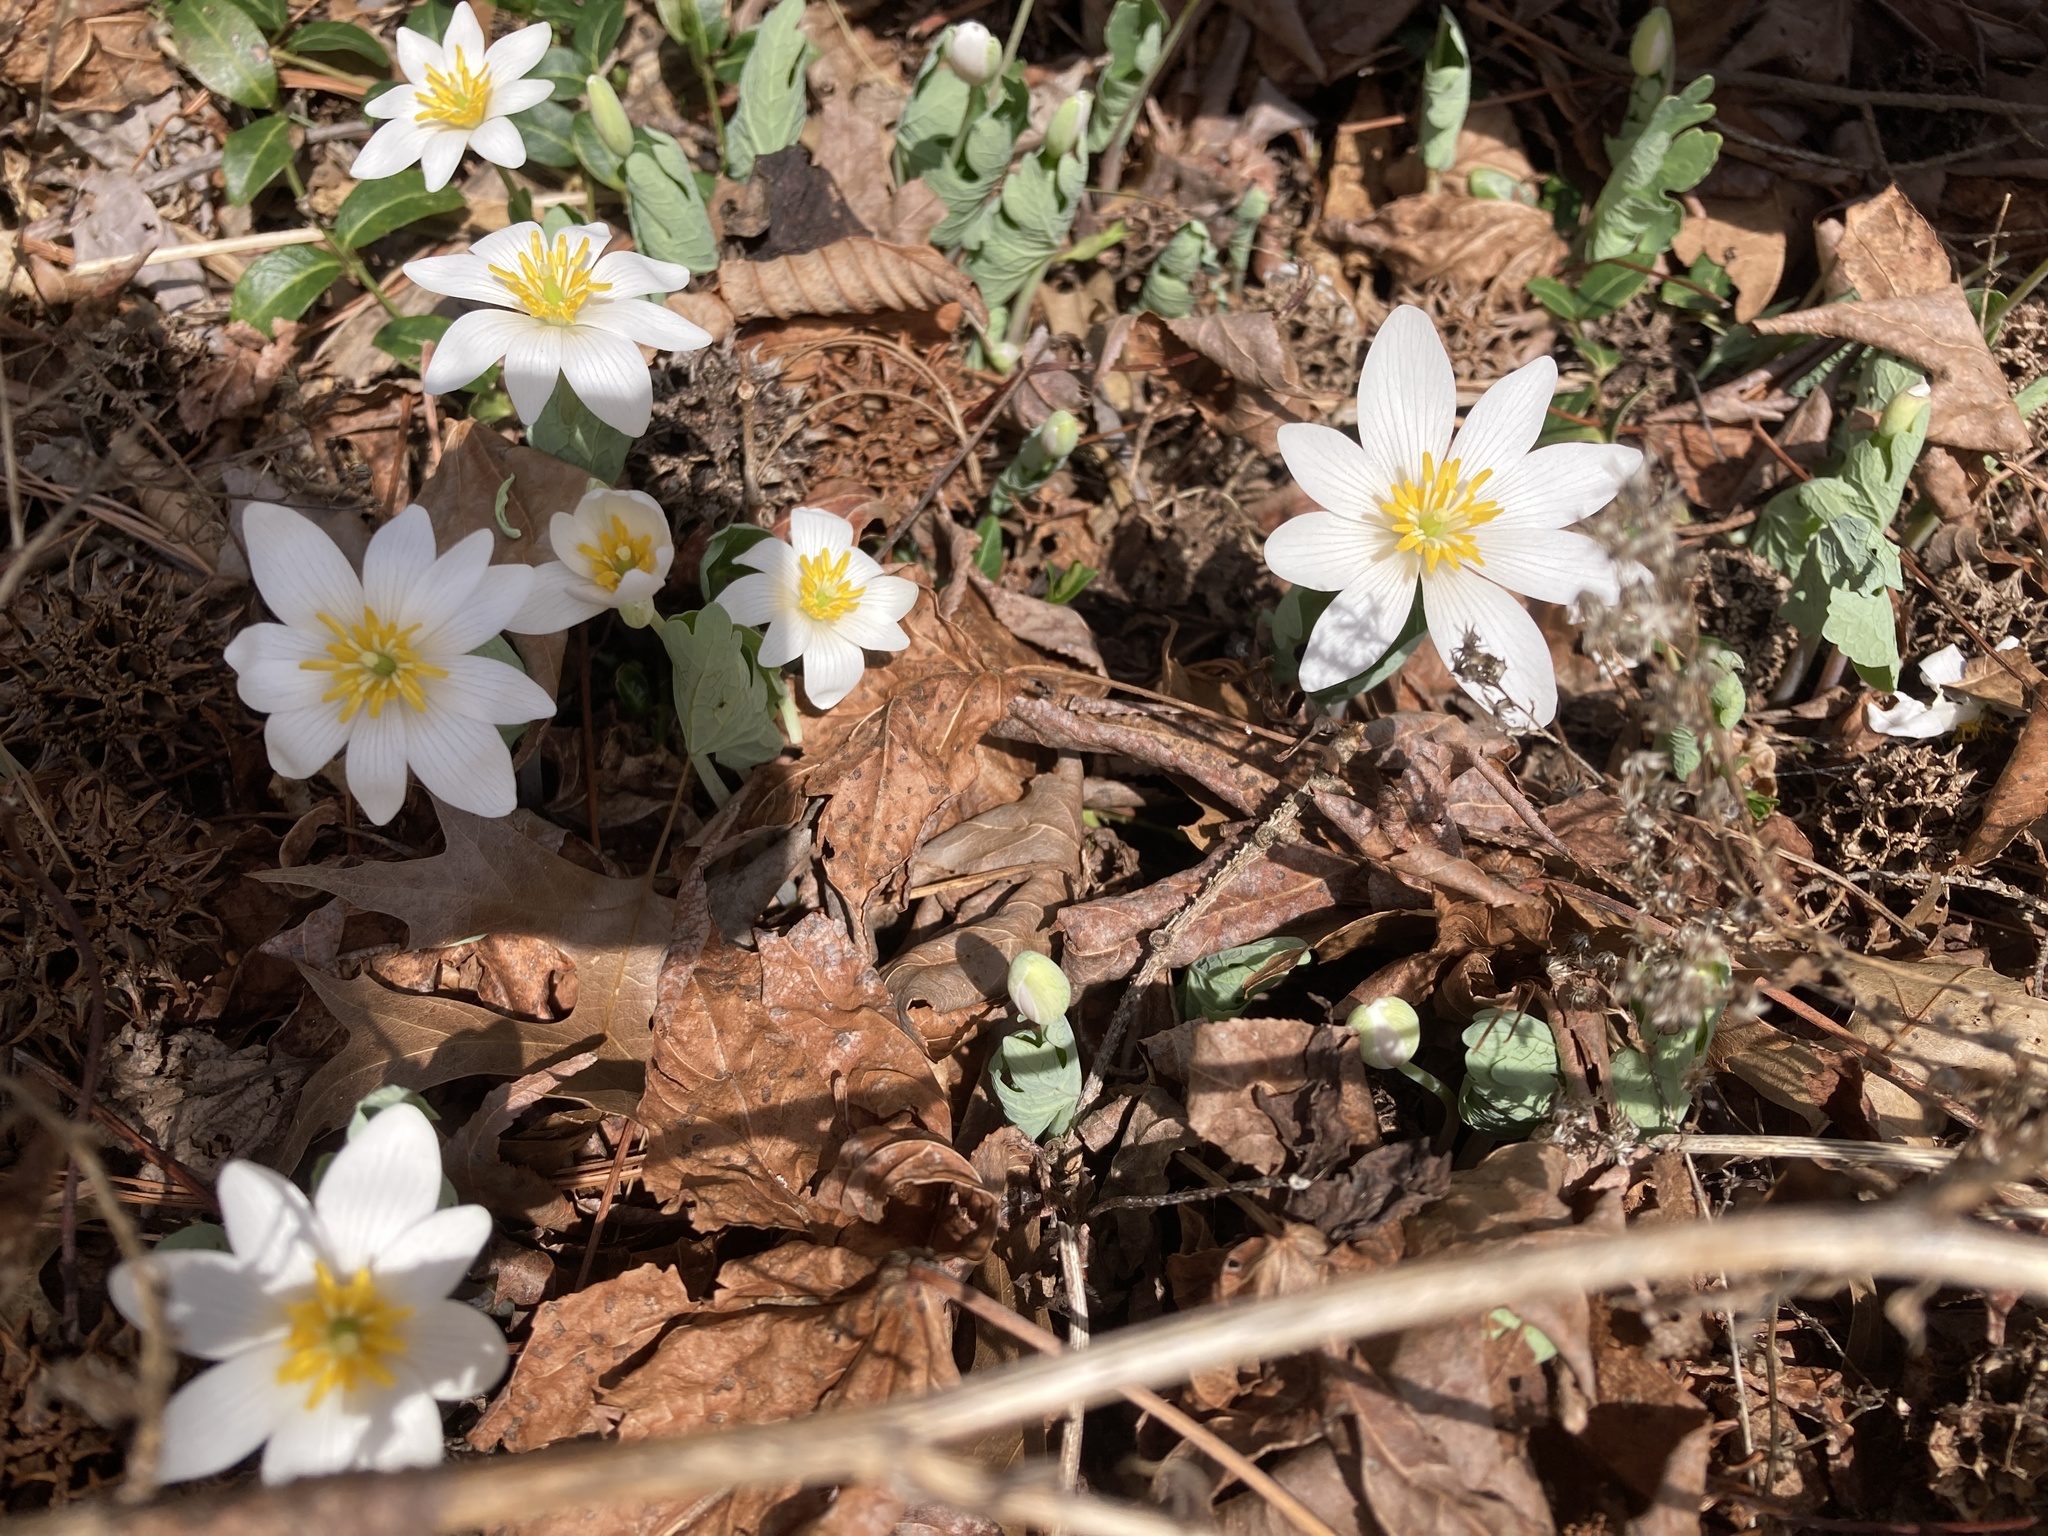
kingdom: Plantae
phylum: Tracheophyta
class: Magnoliopsida
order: Ranunculales
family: Papaveraceae
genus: Sanguinaria
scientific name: Sanguinaria canadensis
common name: Bloodroot
